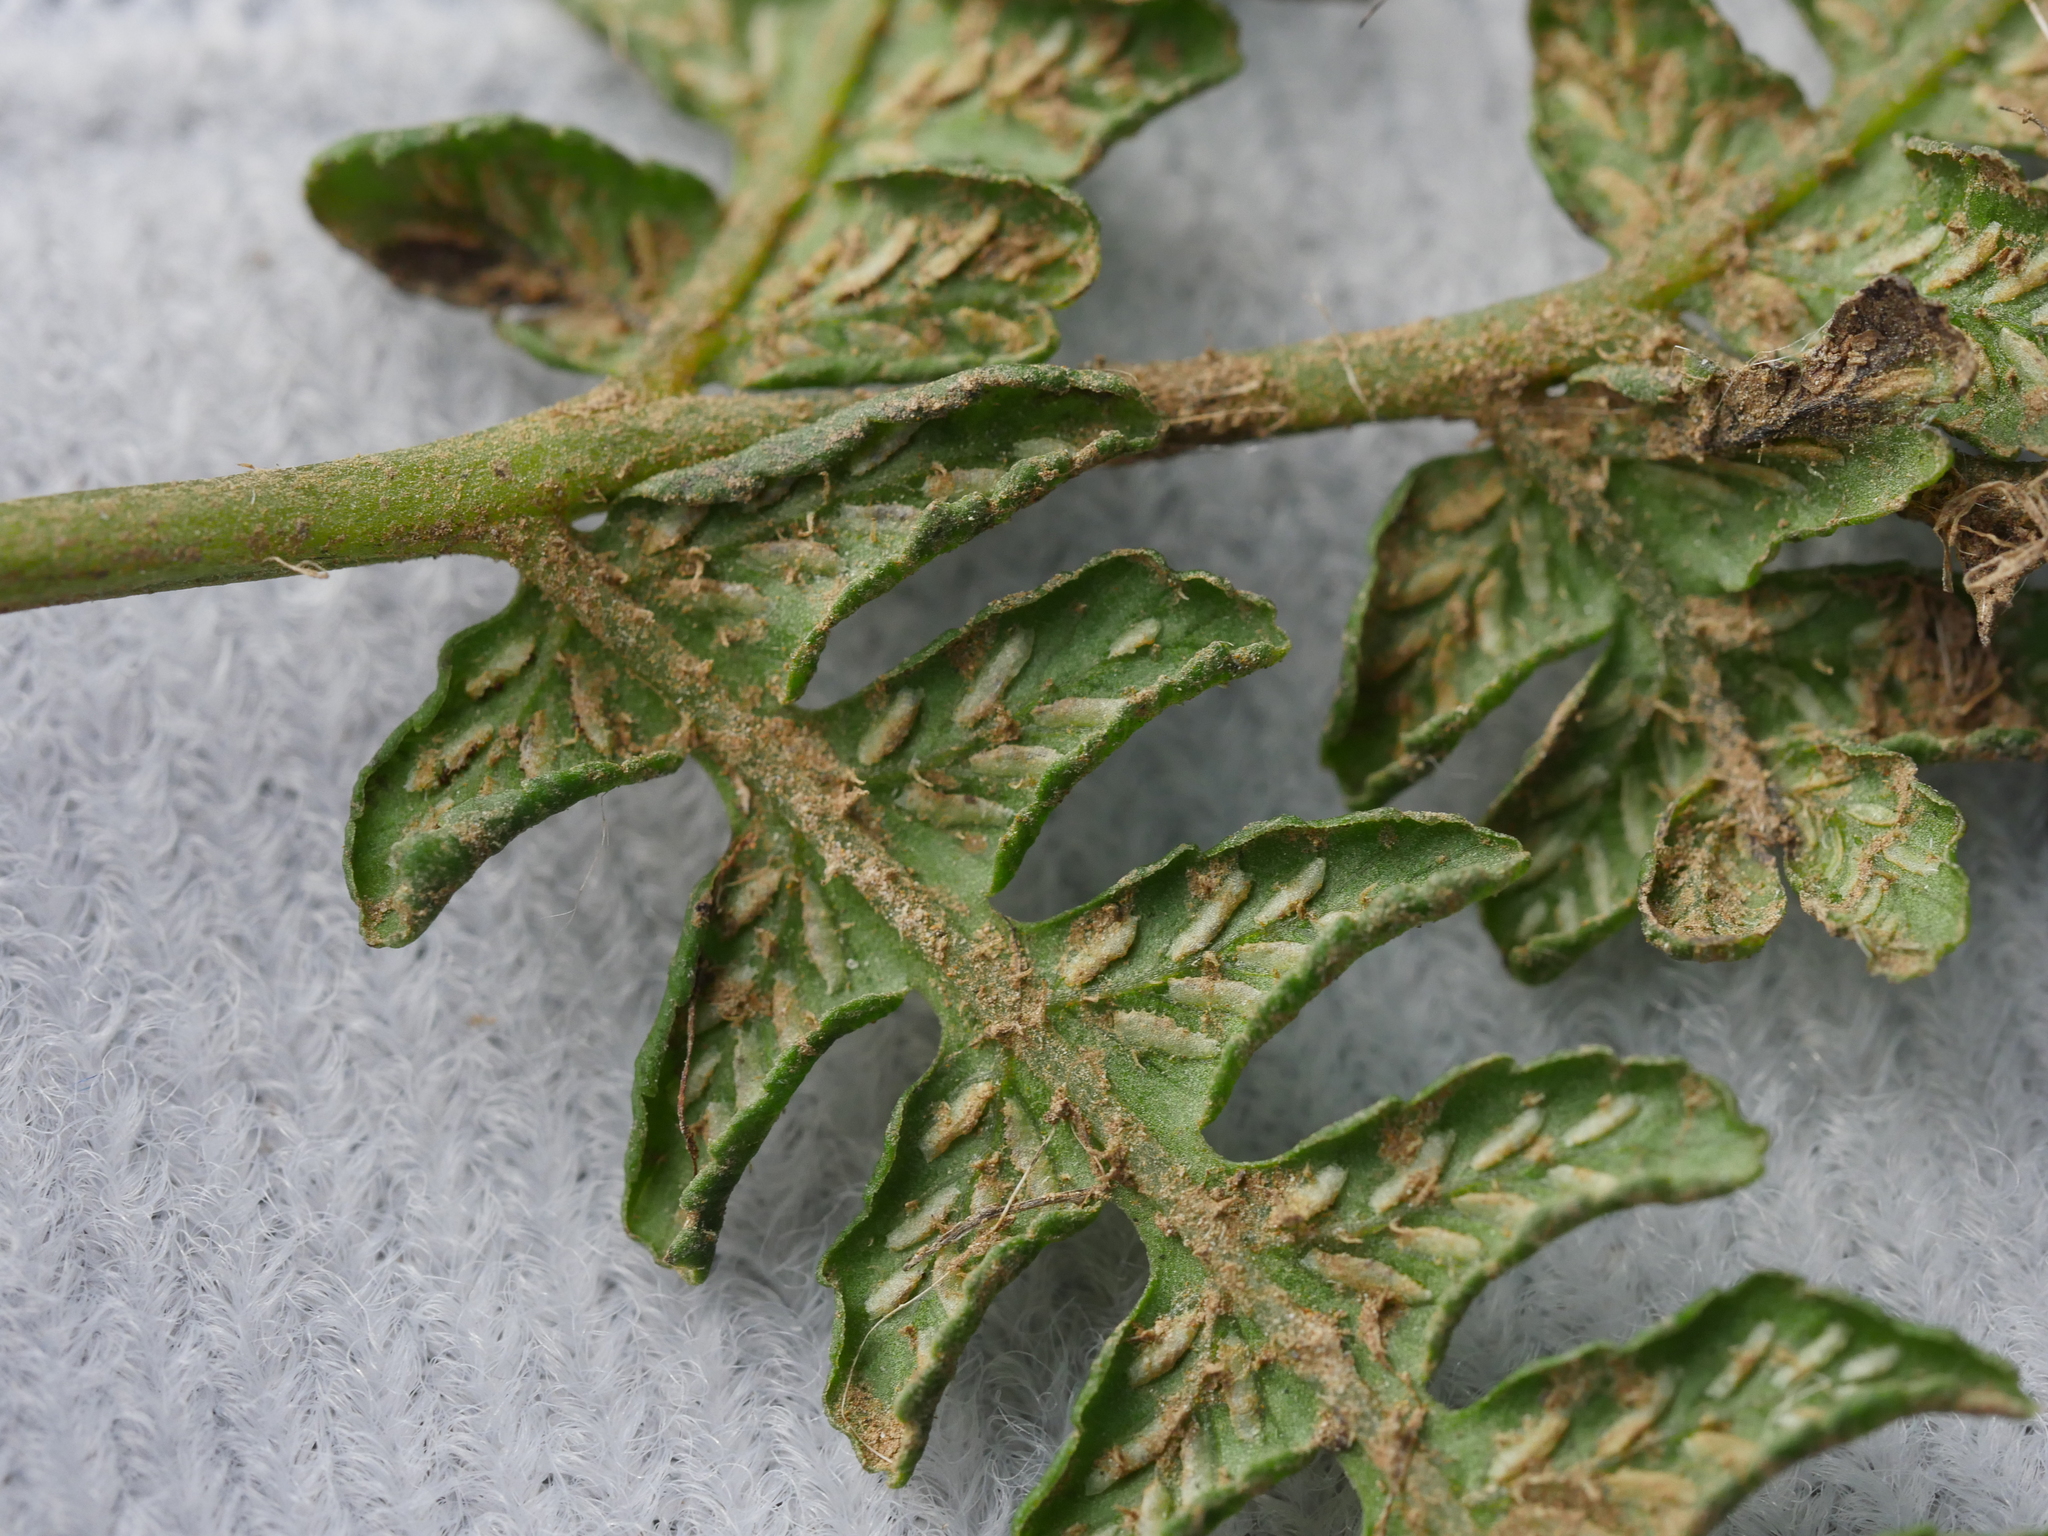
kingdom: Plantae
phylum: Tracheophyta
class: Polypodiopsida
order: Polypodiales
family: Athyriaceae
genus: Diplazium
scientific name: Diplazium congruum
